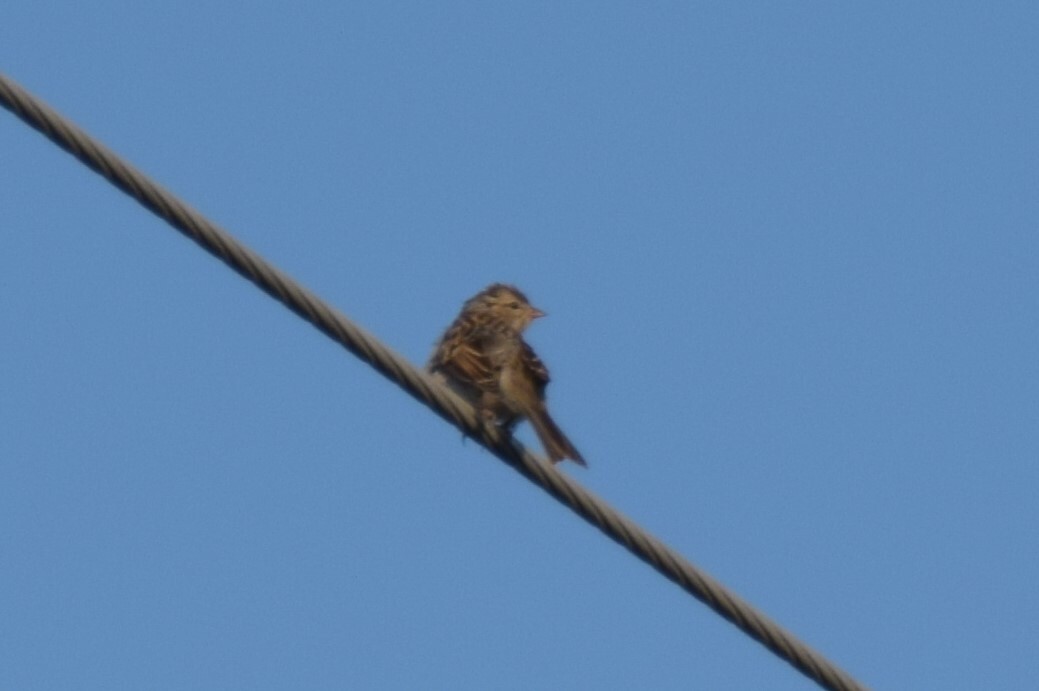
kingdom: Animalia
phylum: Chordata
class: Aves
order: Passeriformes
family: Passerellidae
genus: Spizella
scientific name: Spizella passerina
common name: Chipping sparrow
